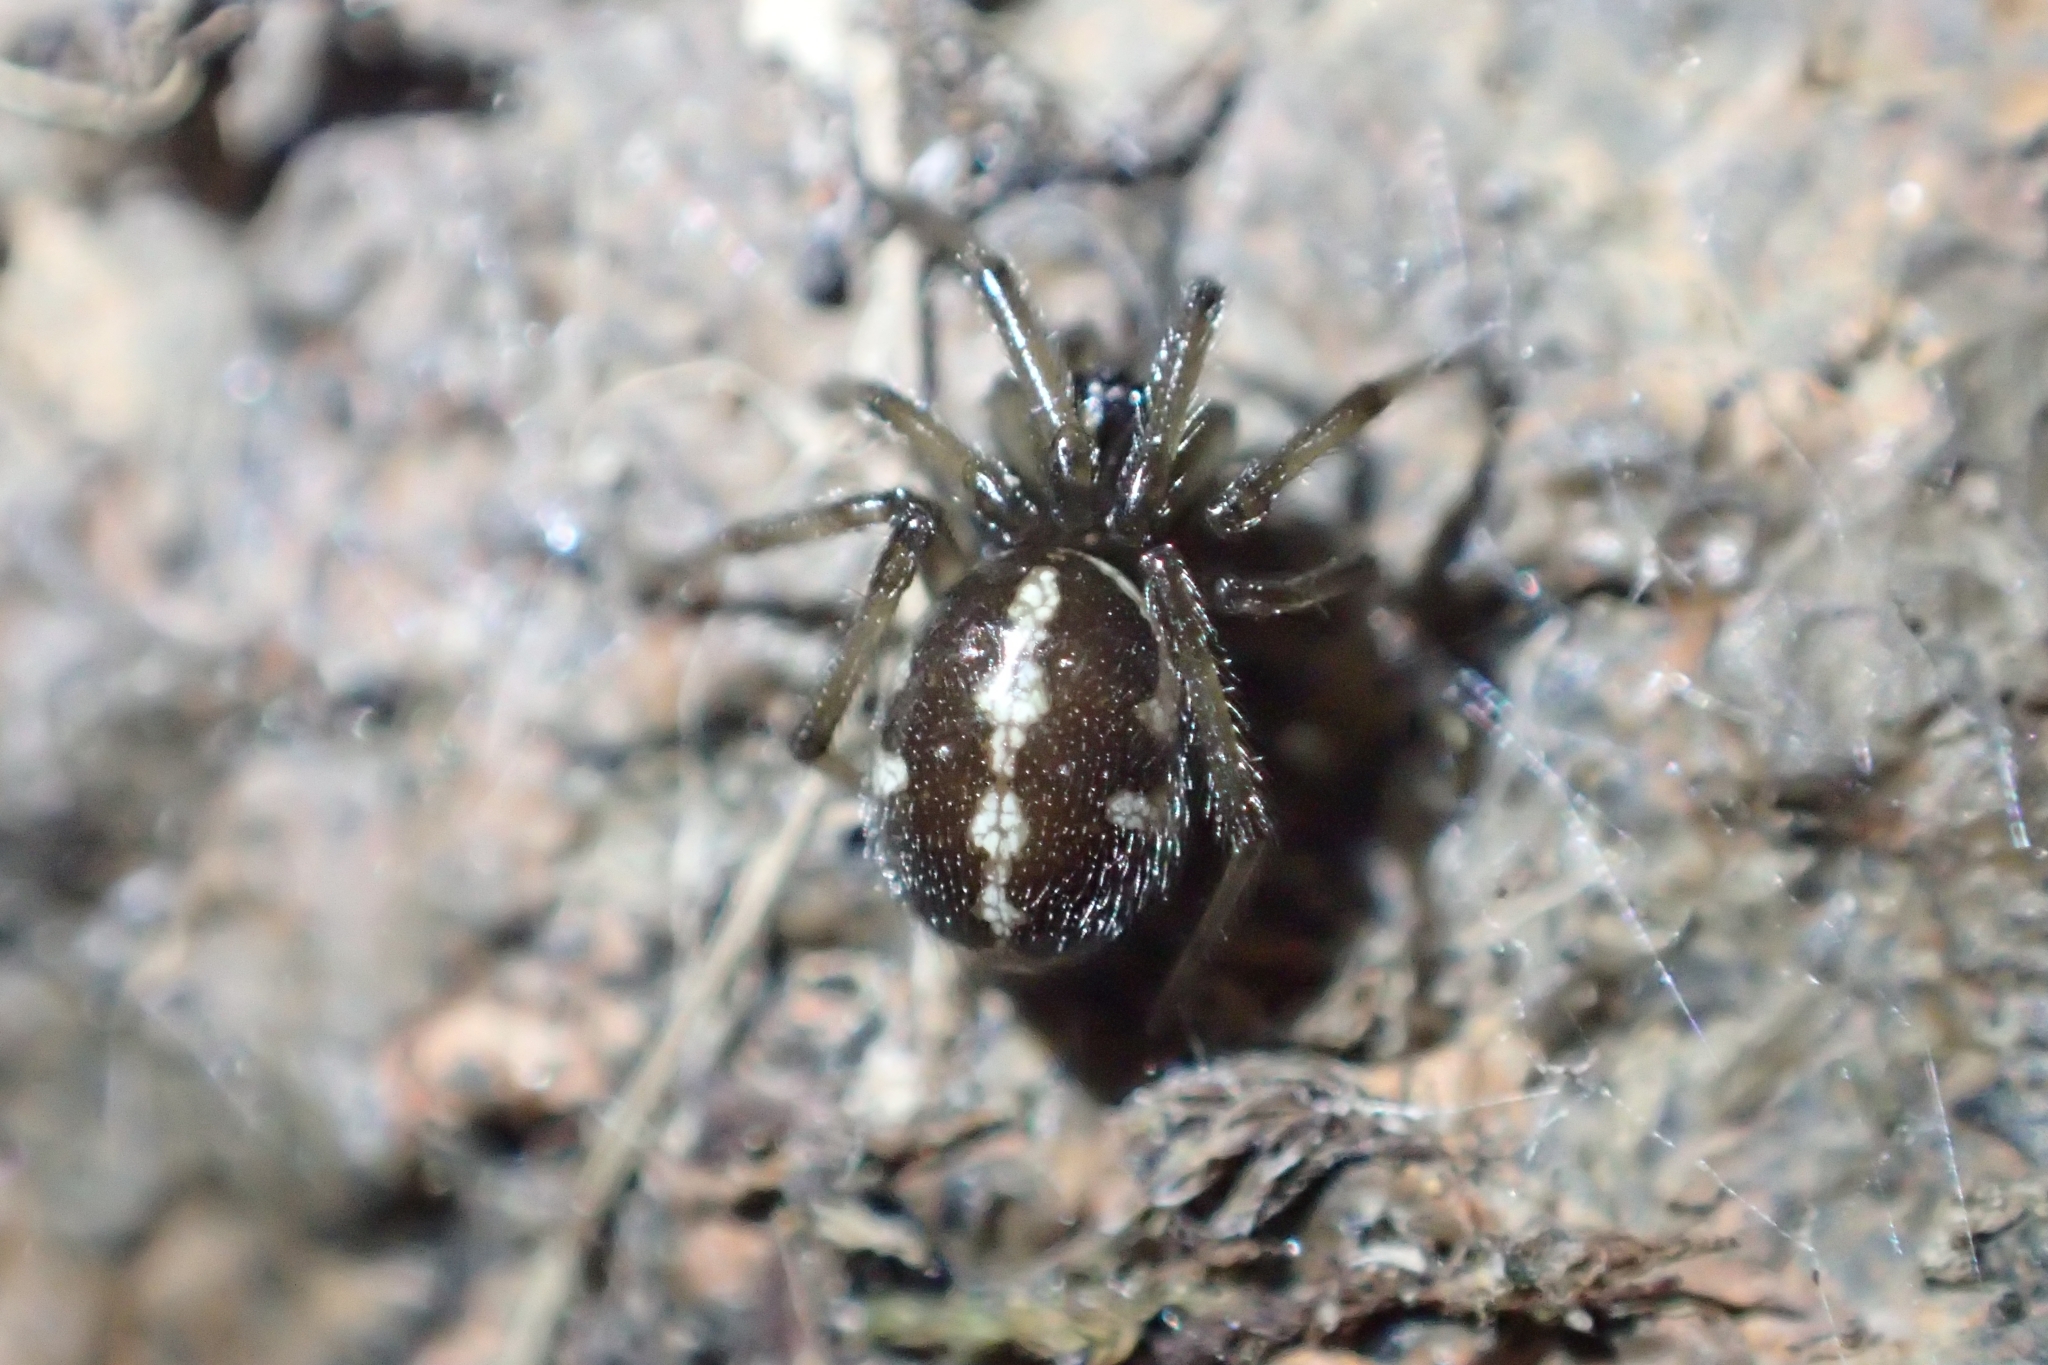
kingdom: Animalia
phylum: Arthropoda
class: Arachnida
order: Araneae
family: Theridiidae
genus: Steatoda
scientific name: Steatoda truncata
